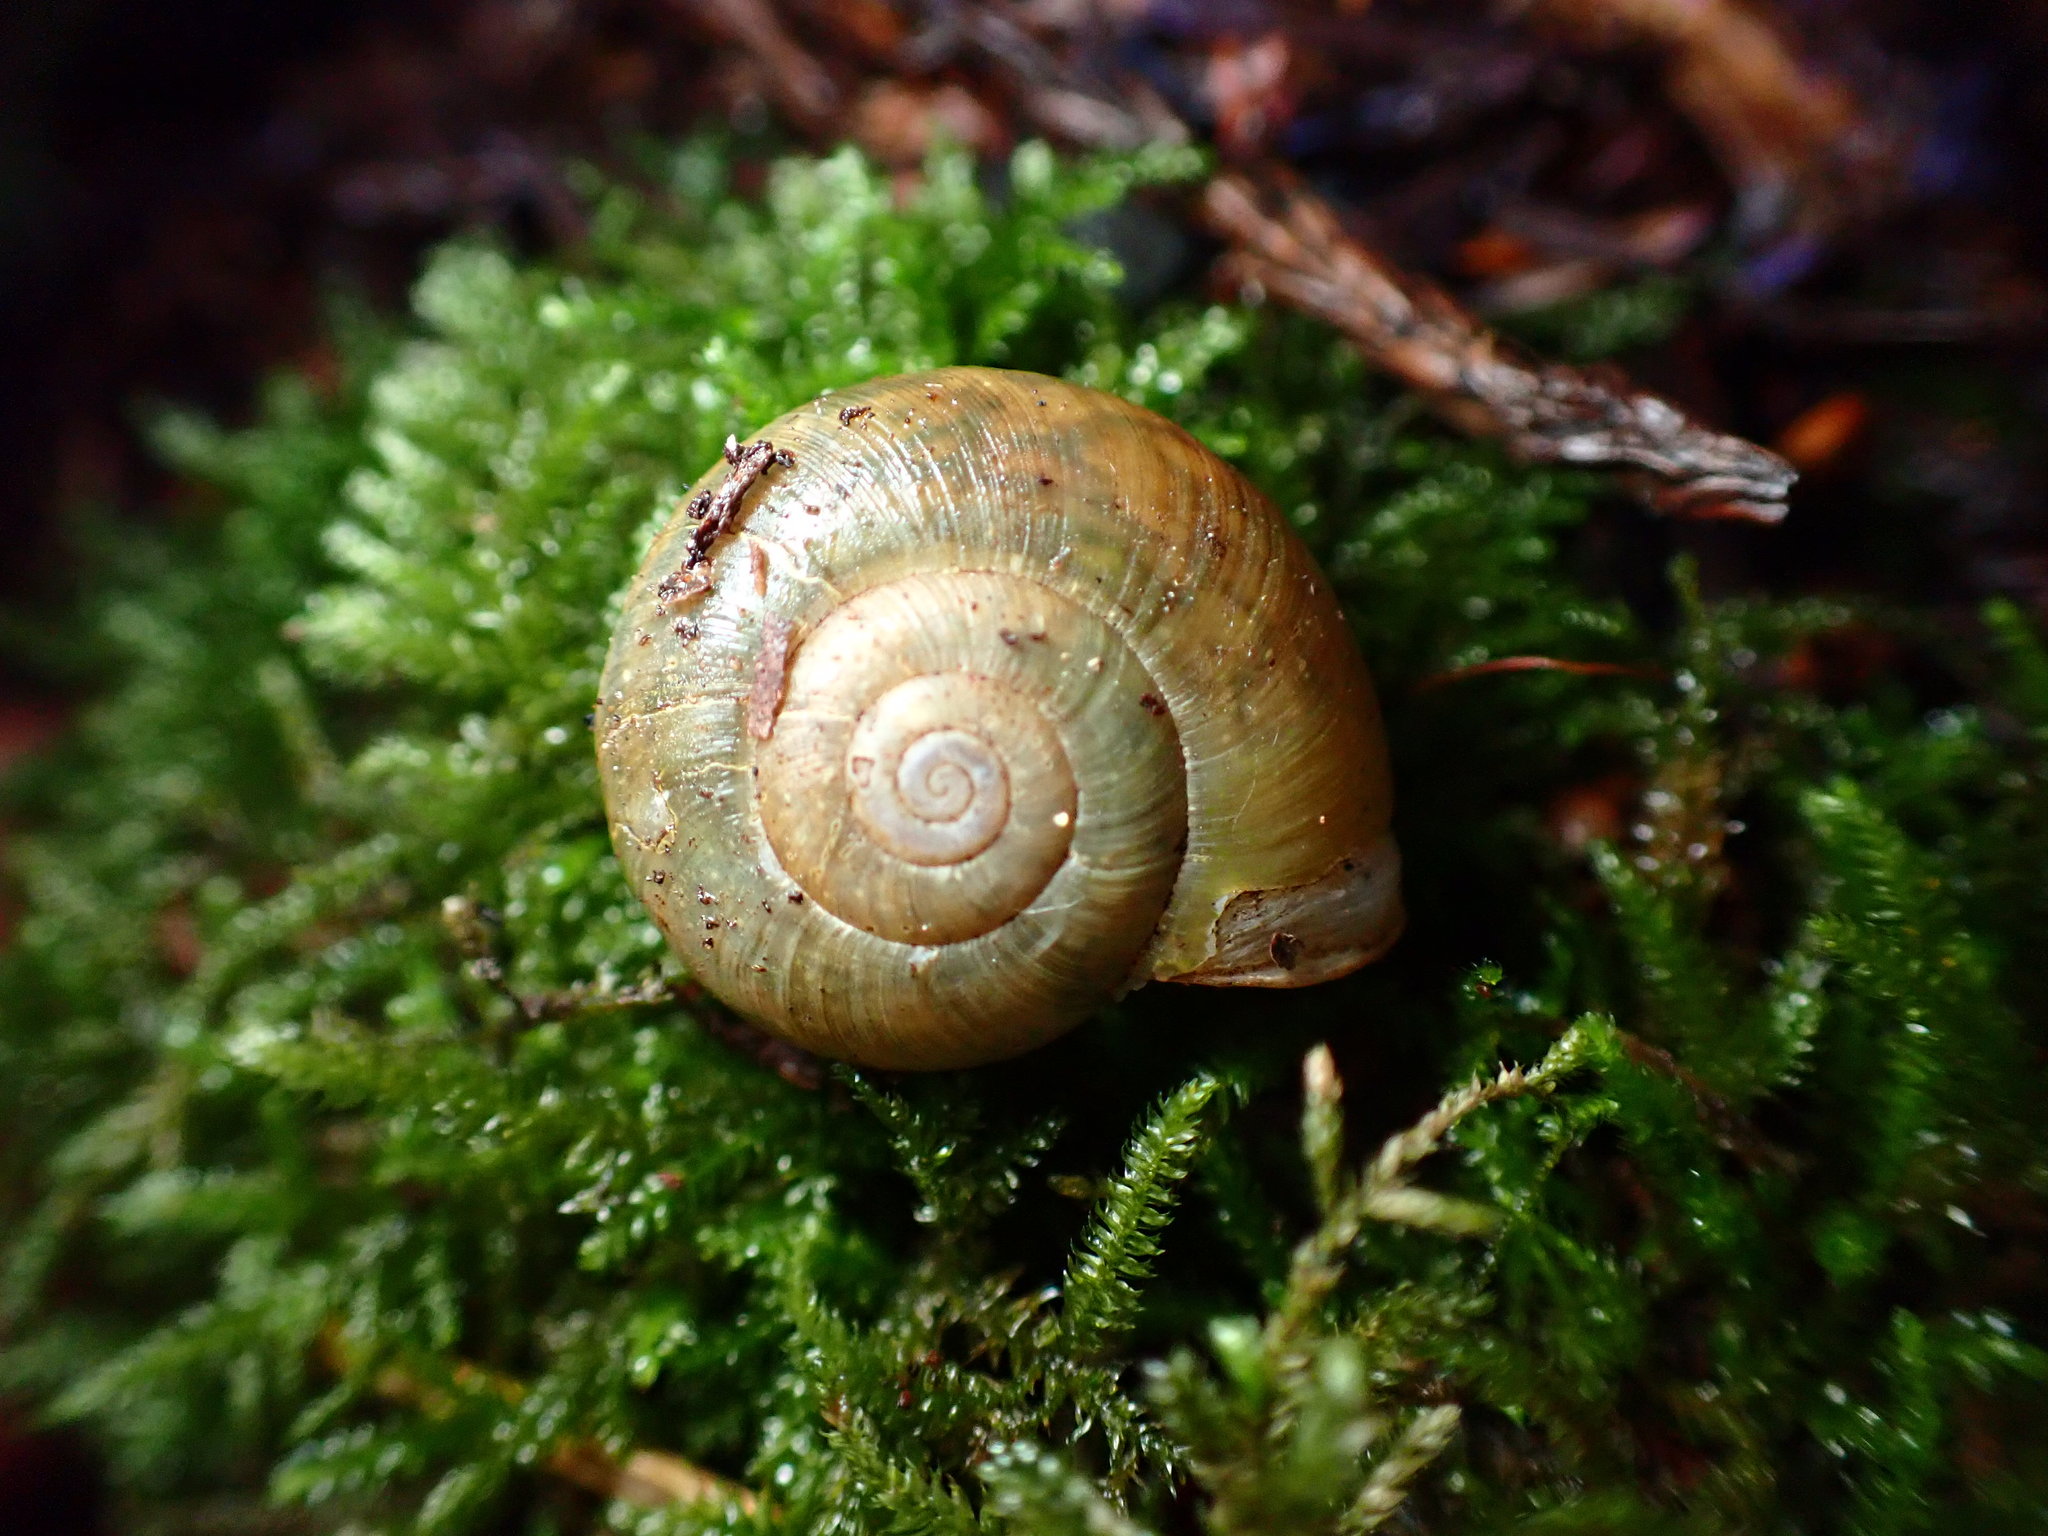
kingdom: Animalia
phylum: Mollusca
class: Gastropoda
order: Stylommatophora
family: Haplotrematidae
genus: Haplotrema
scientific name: Haplotrema minimum
